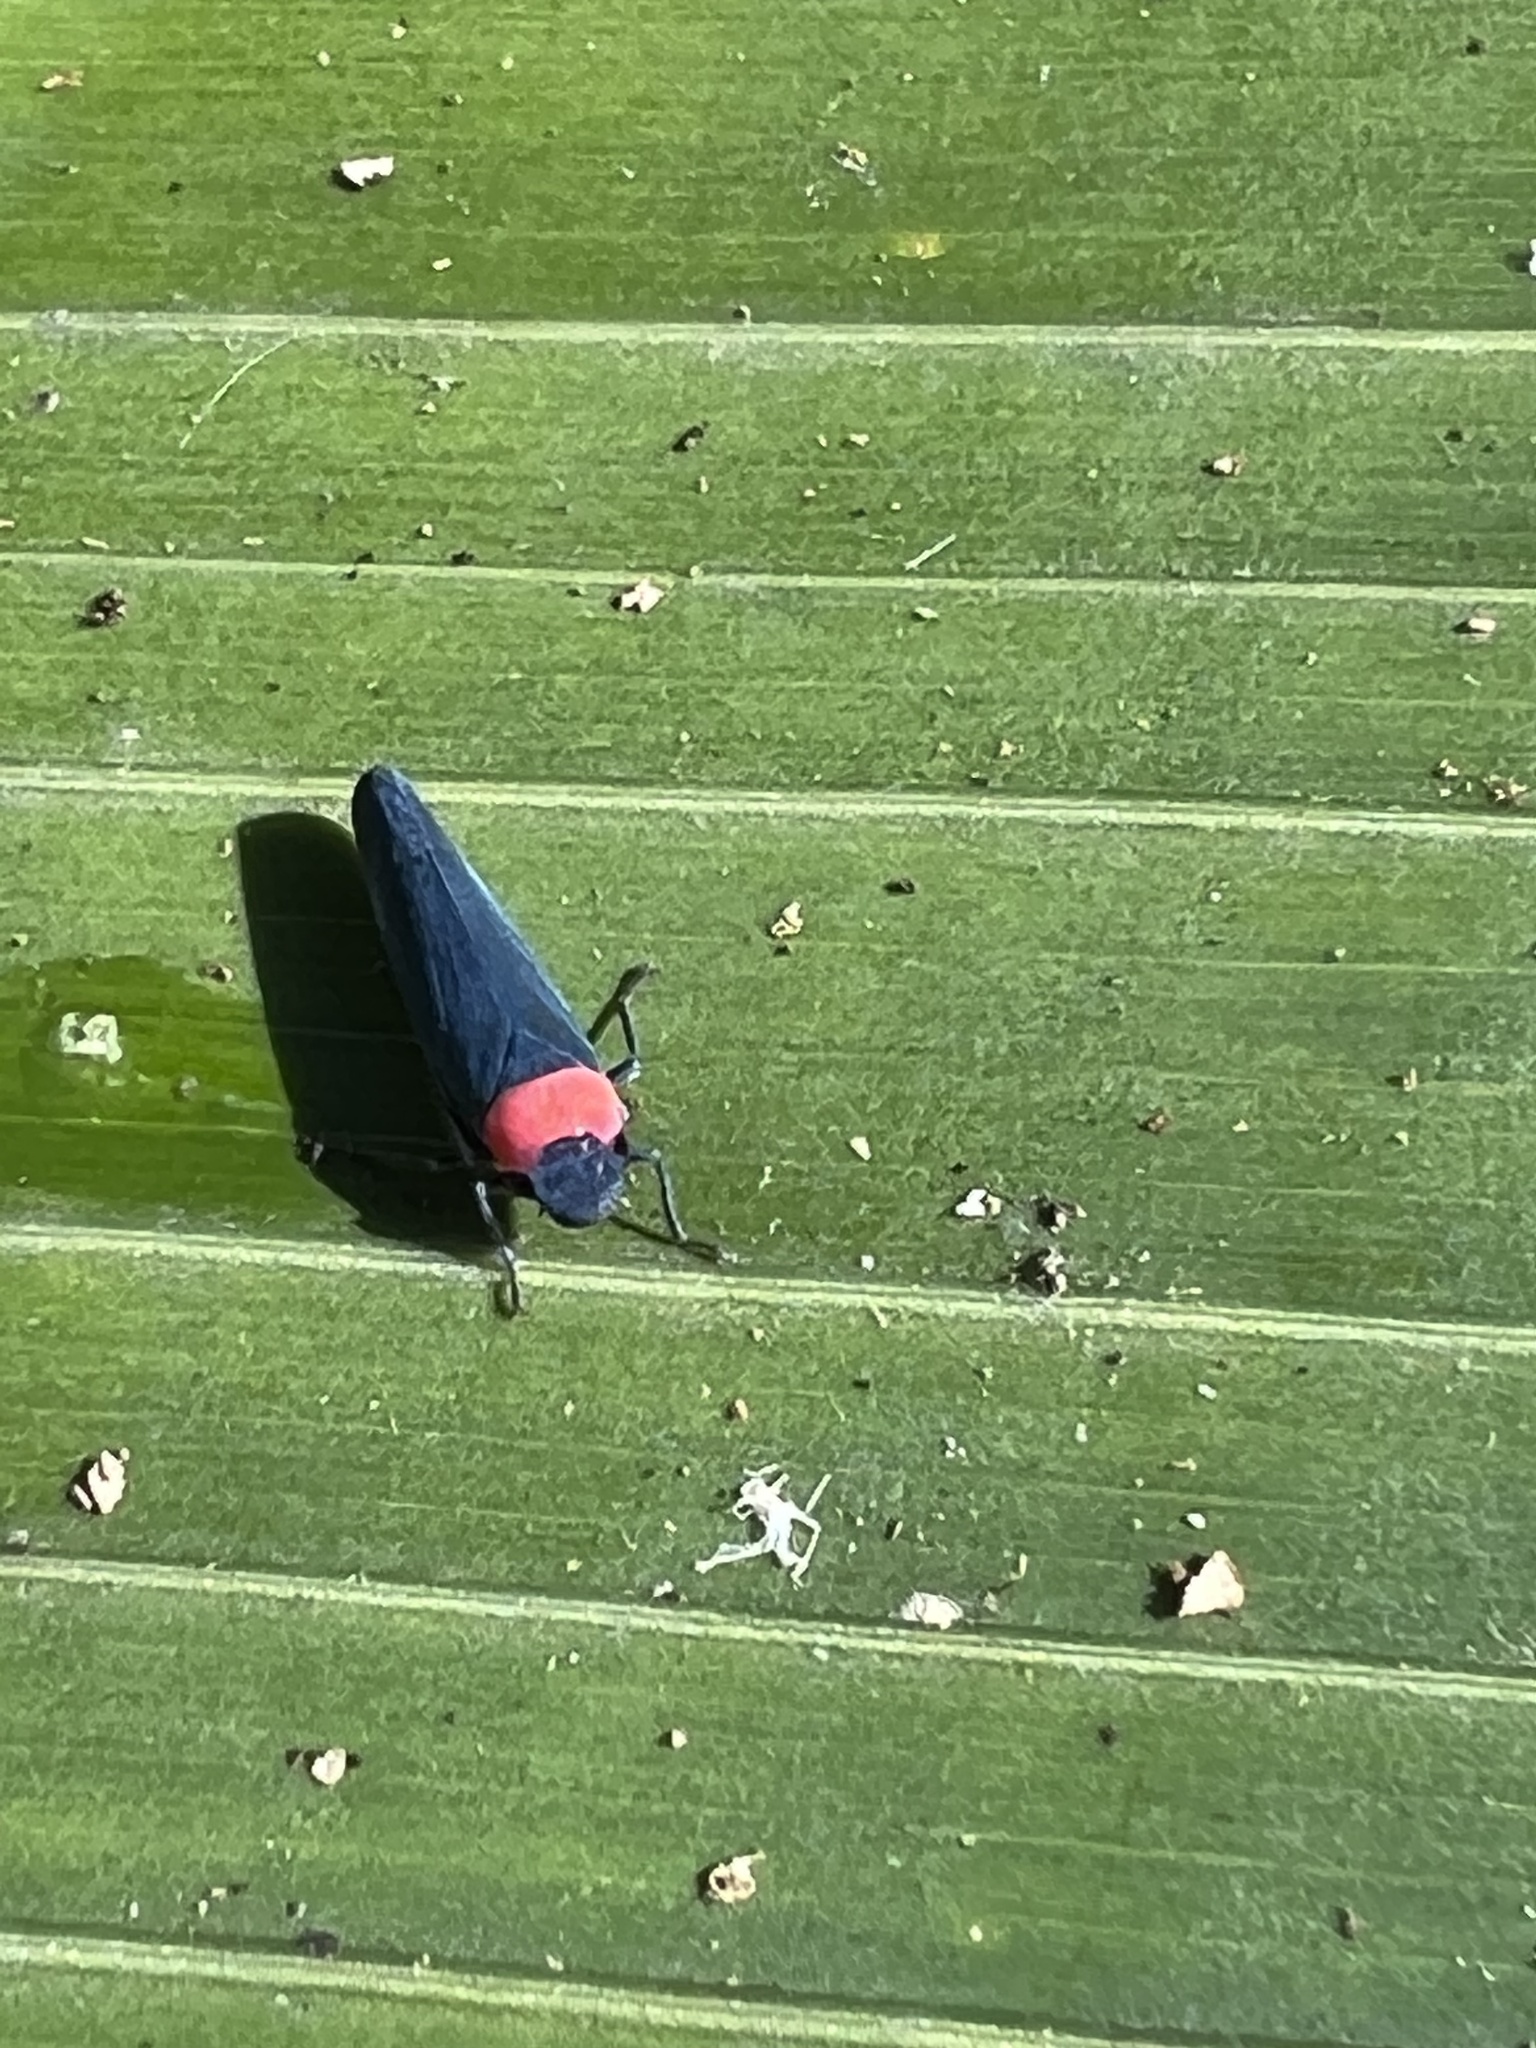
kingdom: Animalia
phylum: Arthropoda
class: Insecta
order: Hemiptera
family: Cicadellidae
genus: Barbinolla
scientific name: Barbinolla costaricensis
